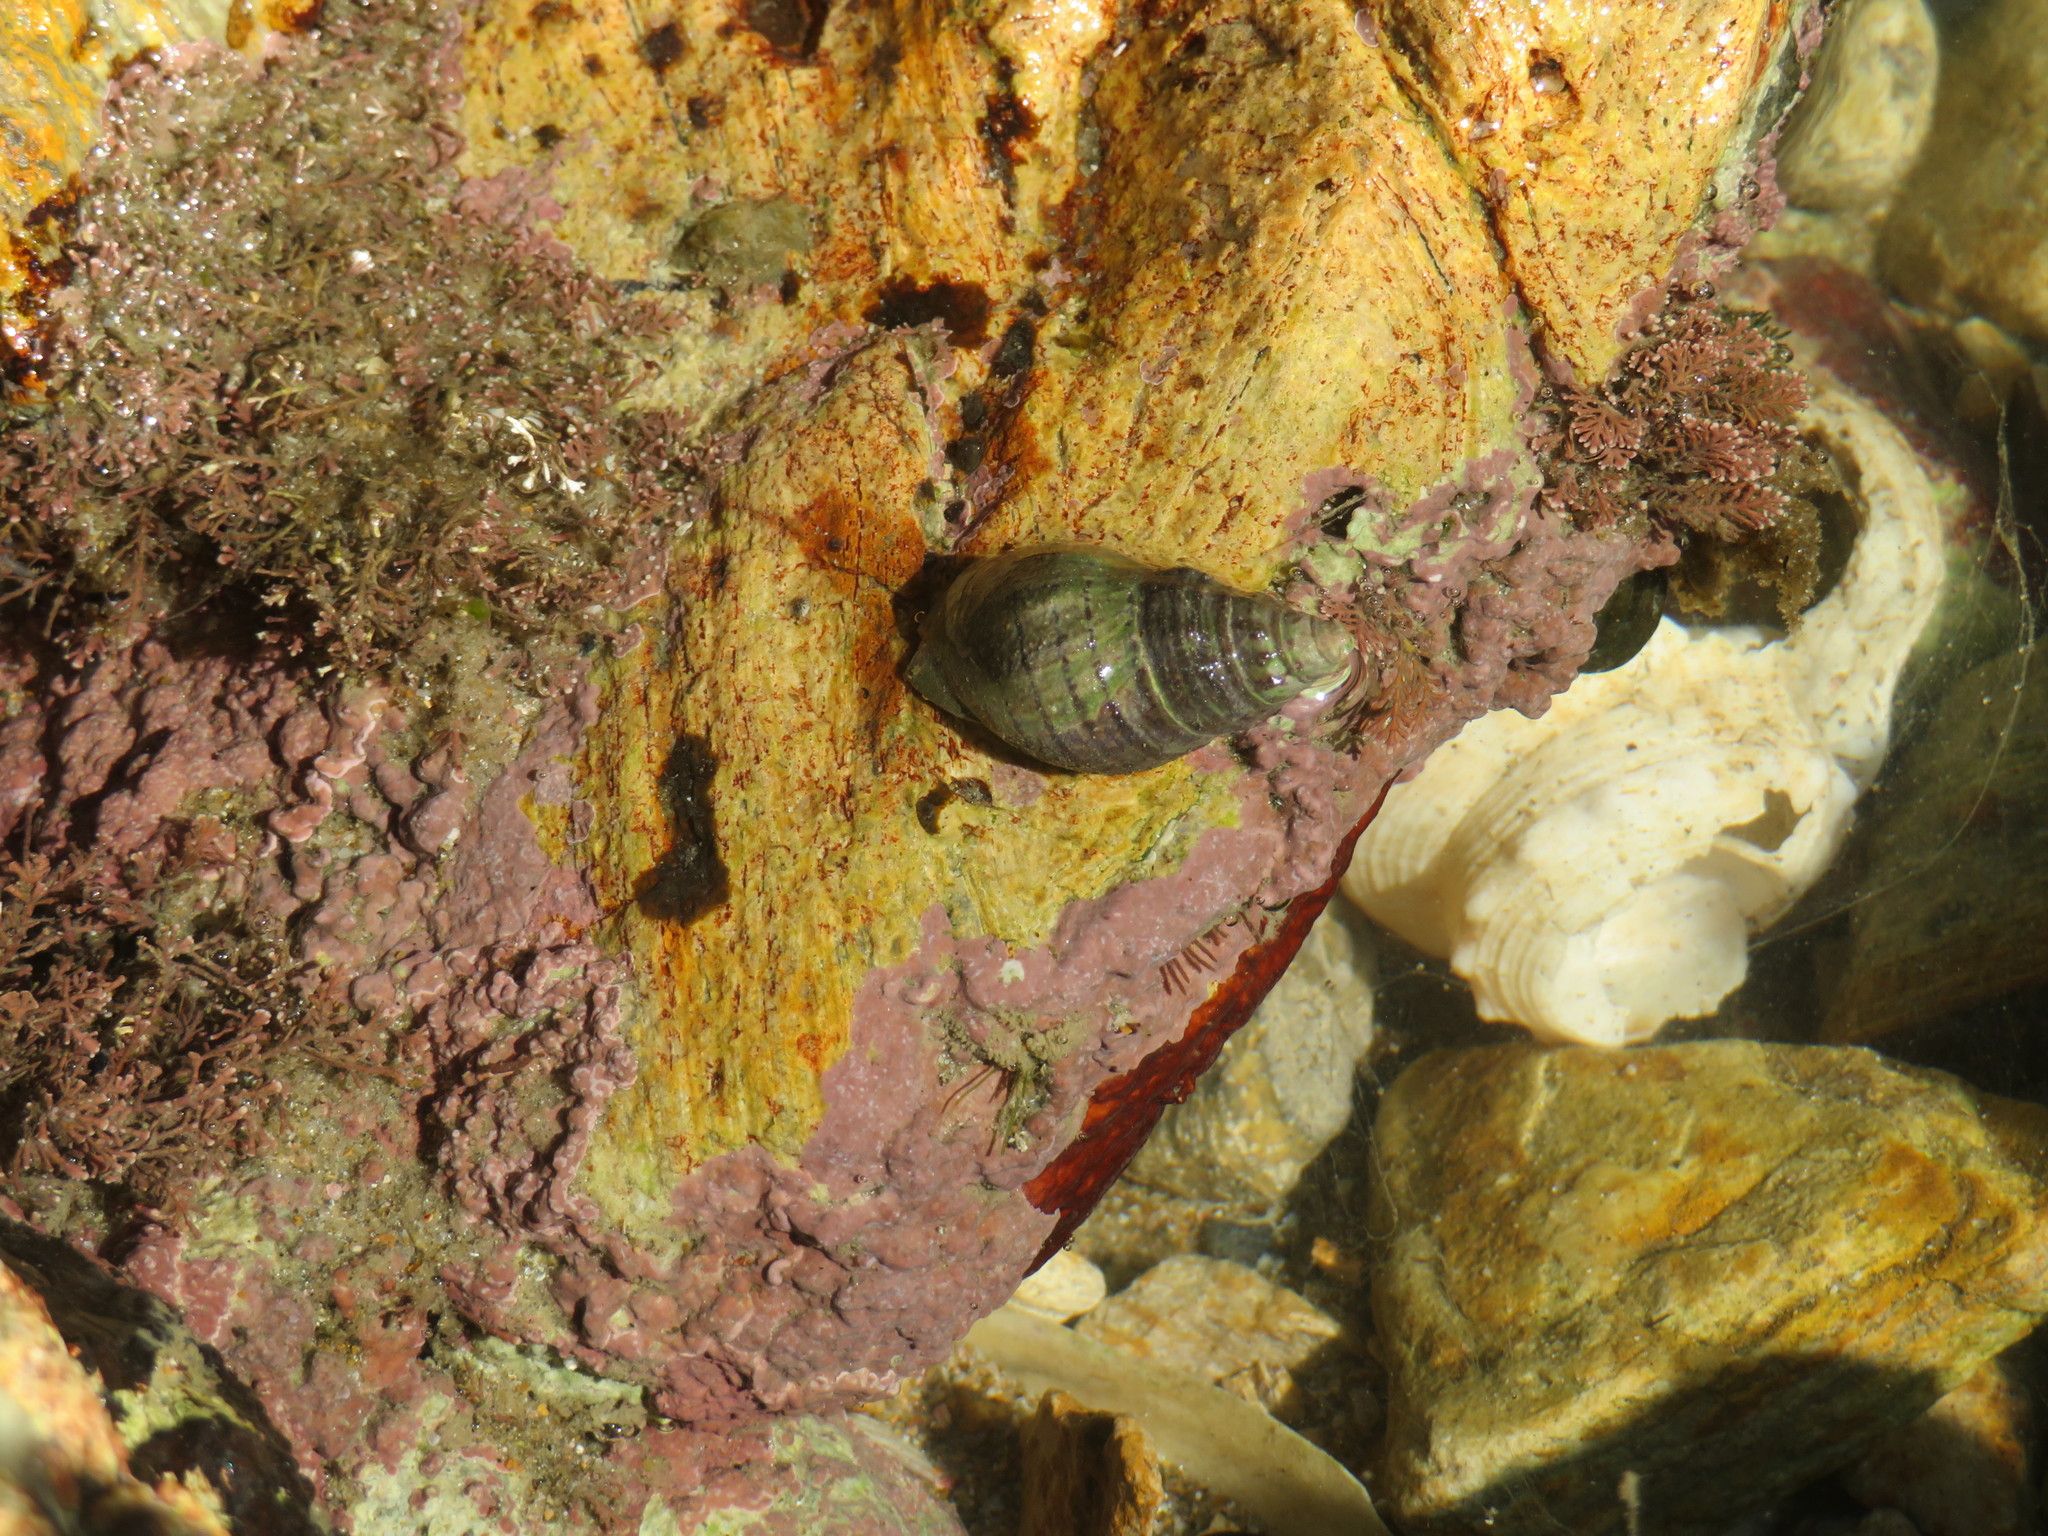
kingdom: Animalia
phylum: Mollusca
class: Gastropoda
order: Neogastropoda
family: Cominellidae
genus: Cominella
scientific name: Cominella virgata
